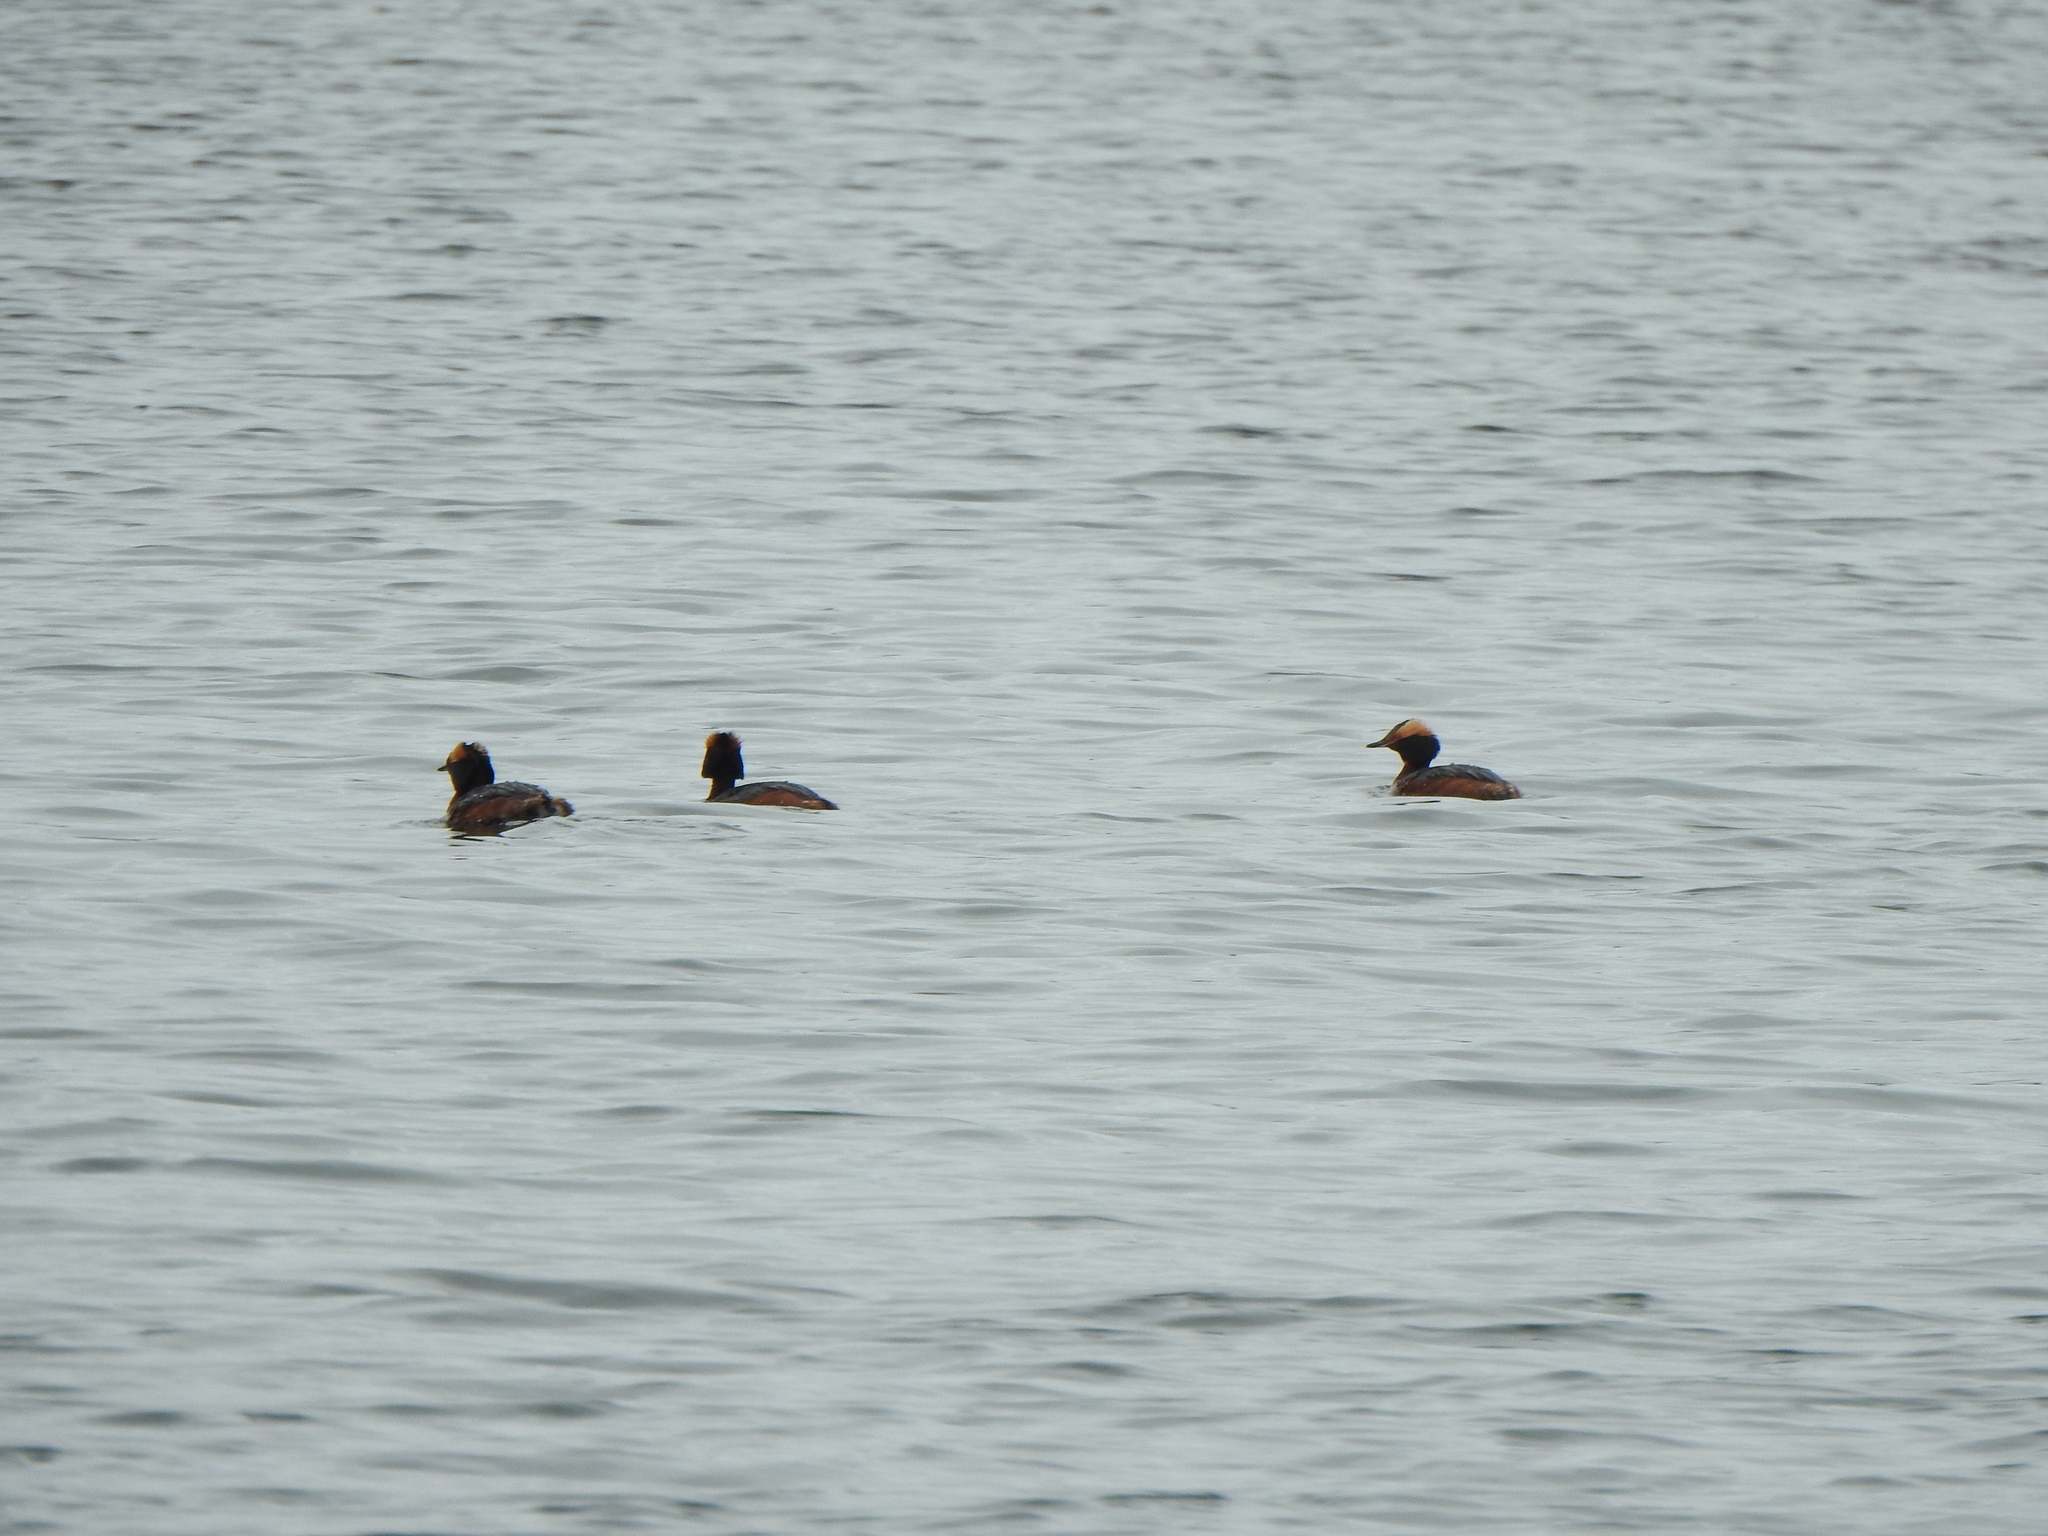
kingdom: Animalia
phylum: Chordata
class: Aves
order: Podicipediformes
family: Podicipedidae
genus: Podiceps
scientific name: Podiceps auritus
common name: Horned grebe
